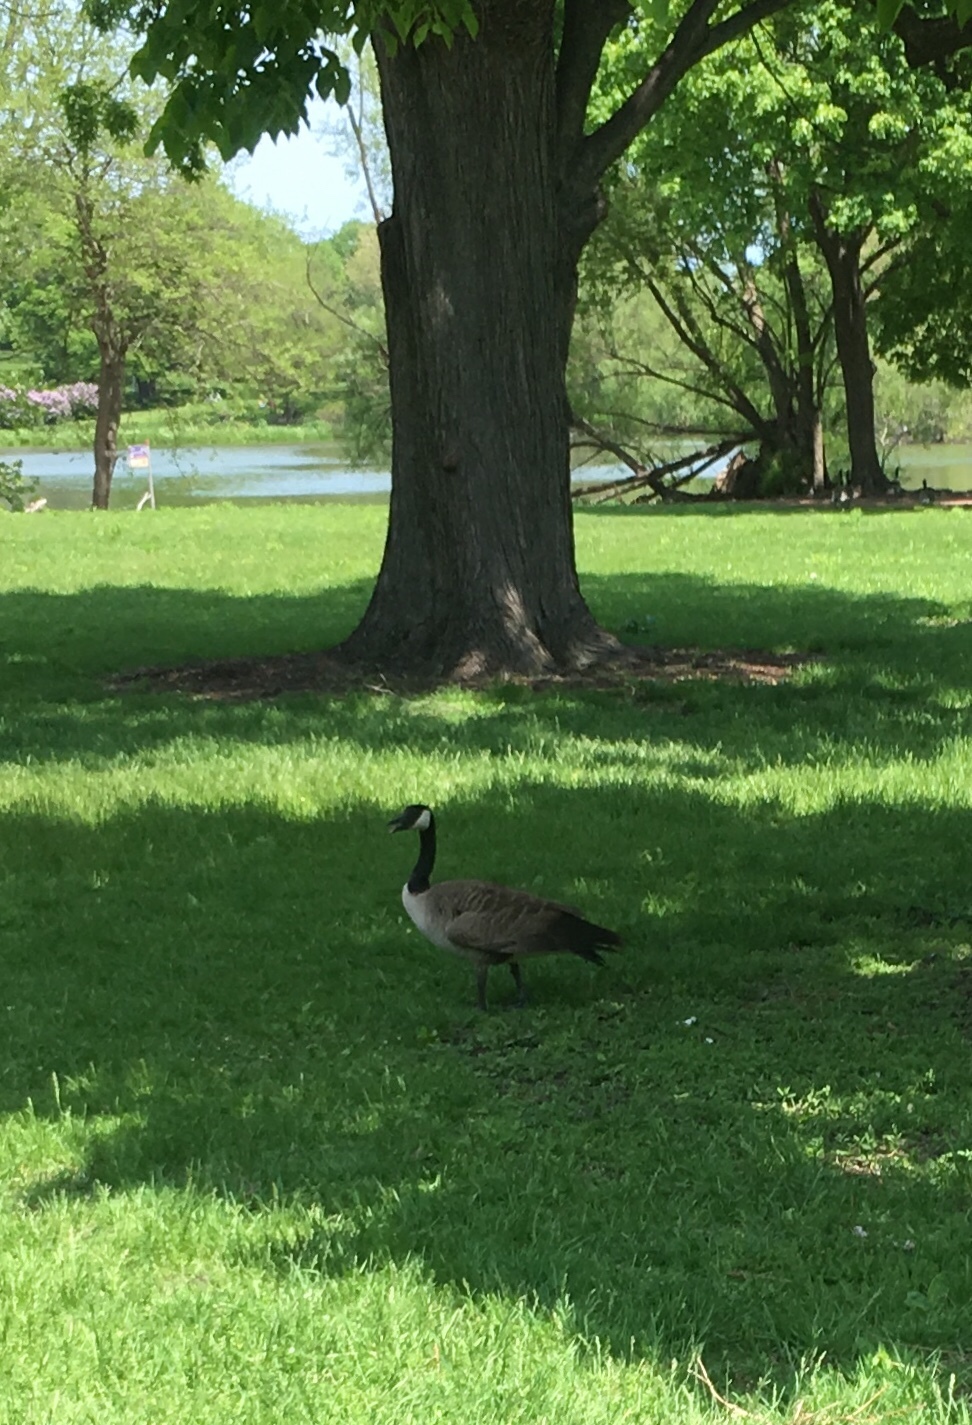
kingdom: Animalia
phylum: Chordata
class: Aves
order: Anseriformes
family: Anatidae
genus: Branta
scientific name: Branta canadensis
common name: Canada goose
